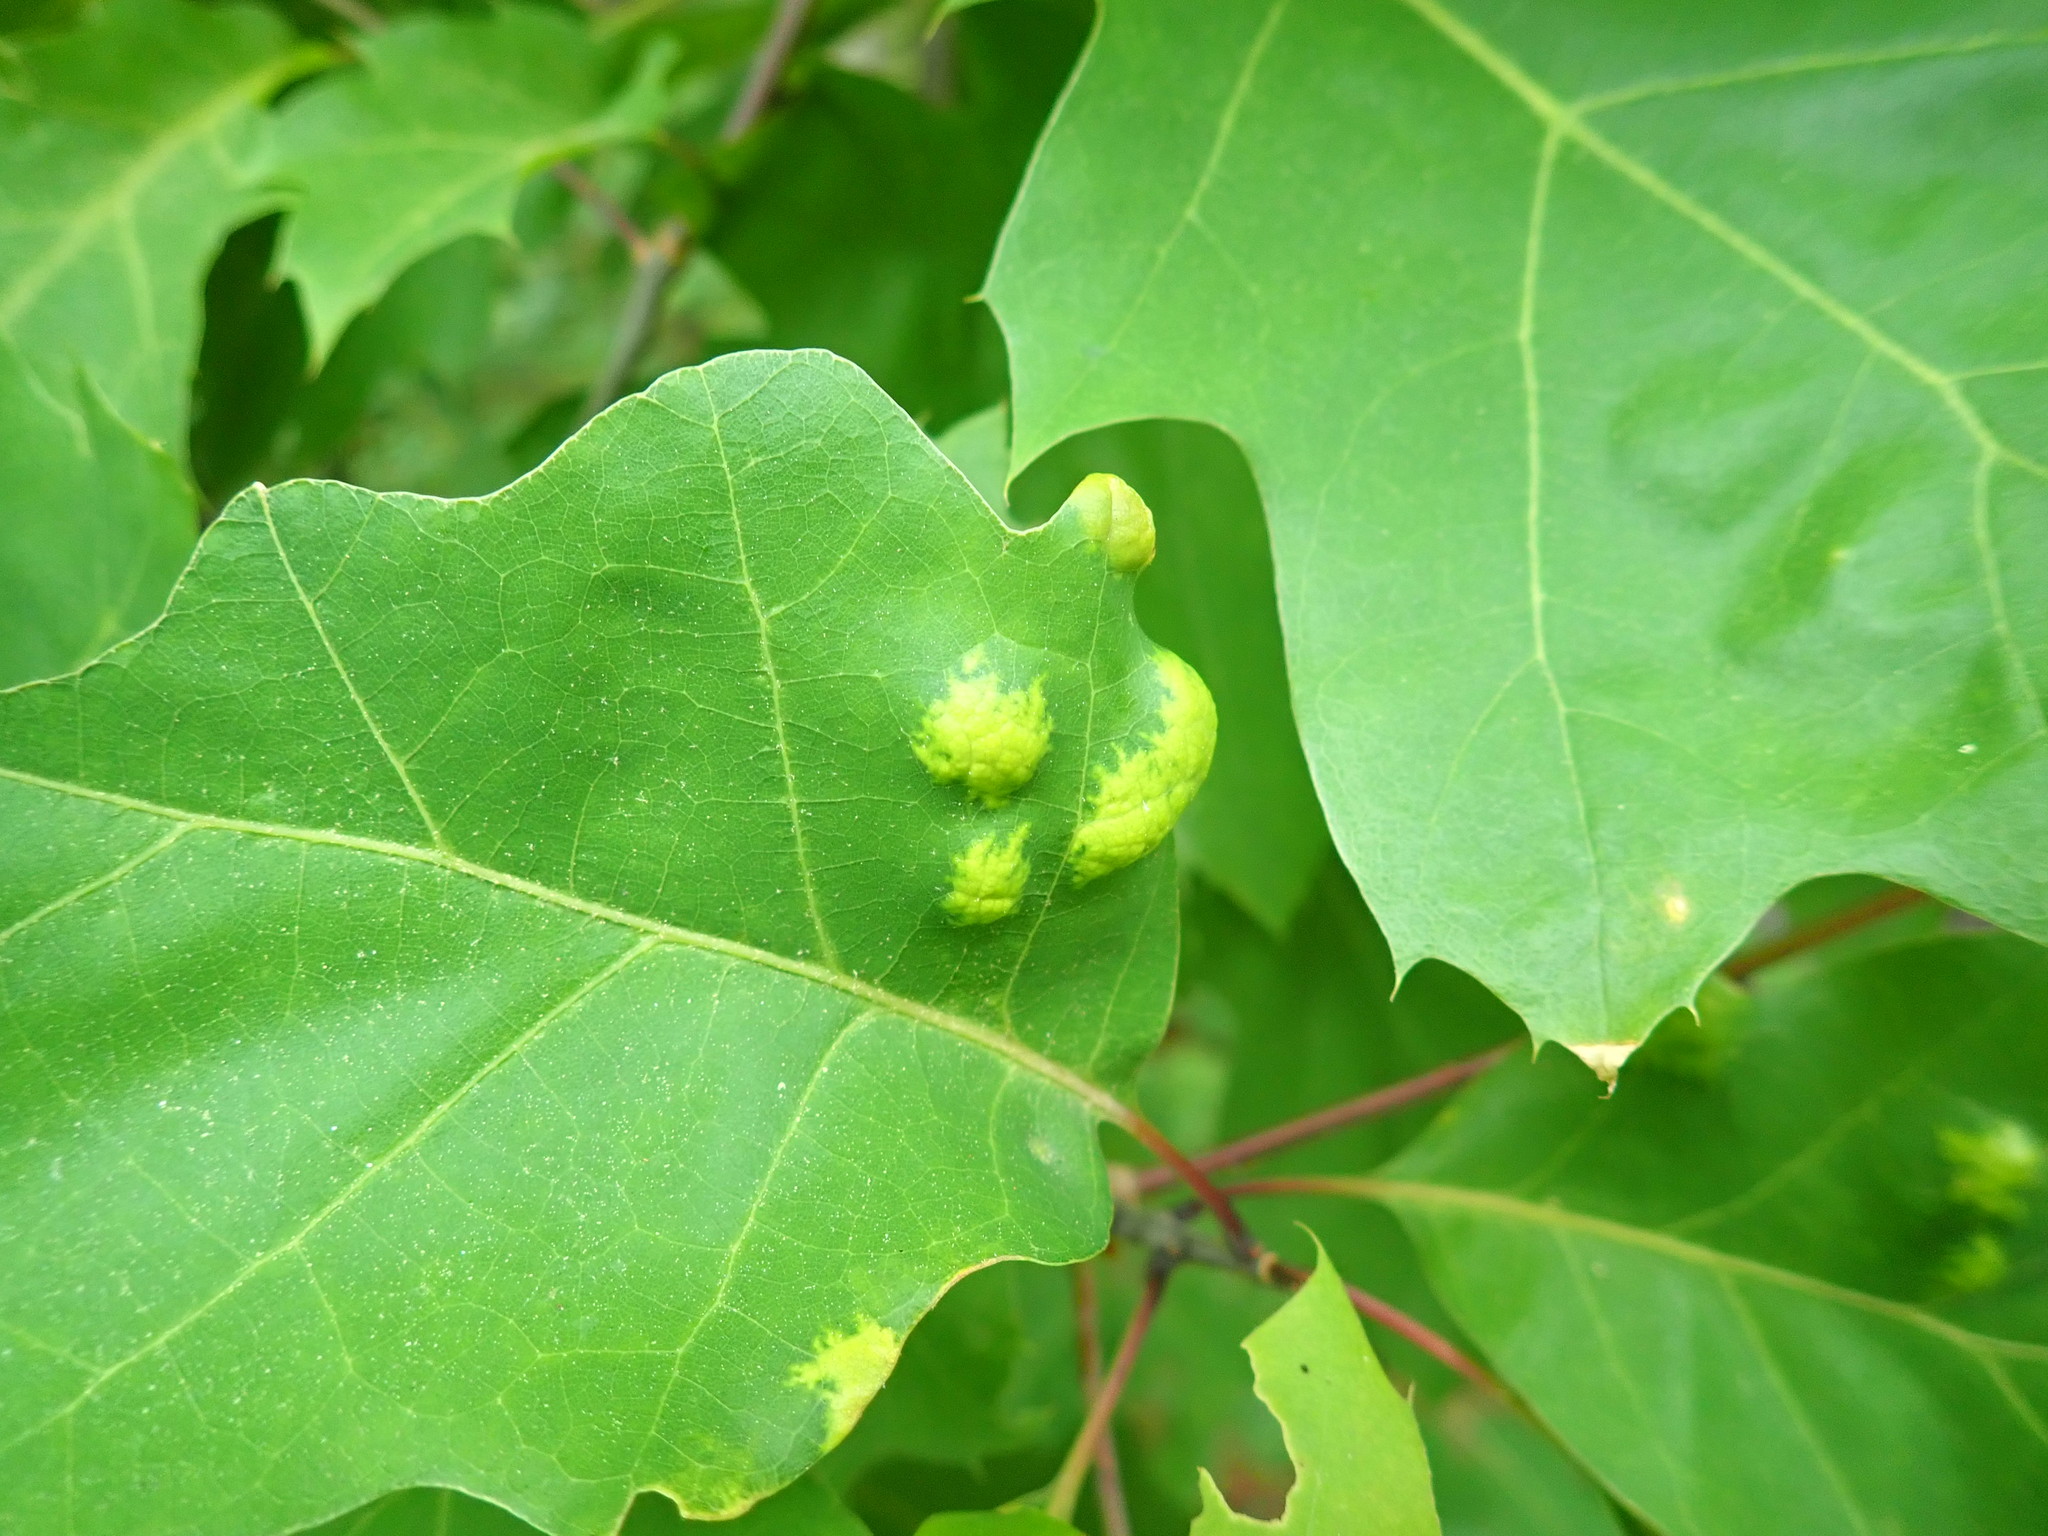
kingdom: Fungi
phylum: Ascomycota
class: Taphrinomycetes
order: Taphrinales
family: Taphrinaceae
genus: Taphrina
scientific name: Taphrina caerulescens
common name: Oak leaf blister
